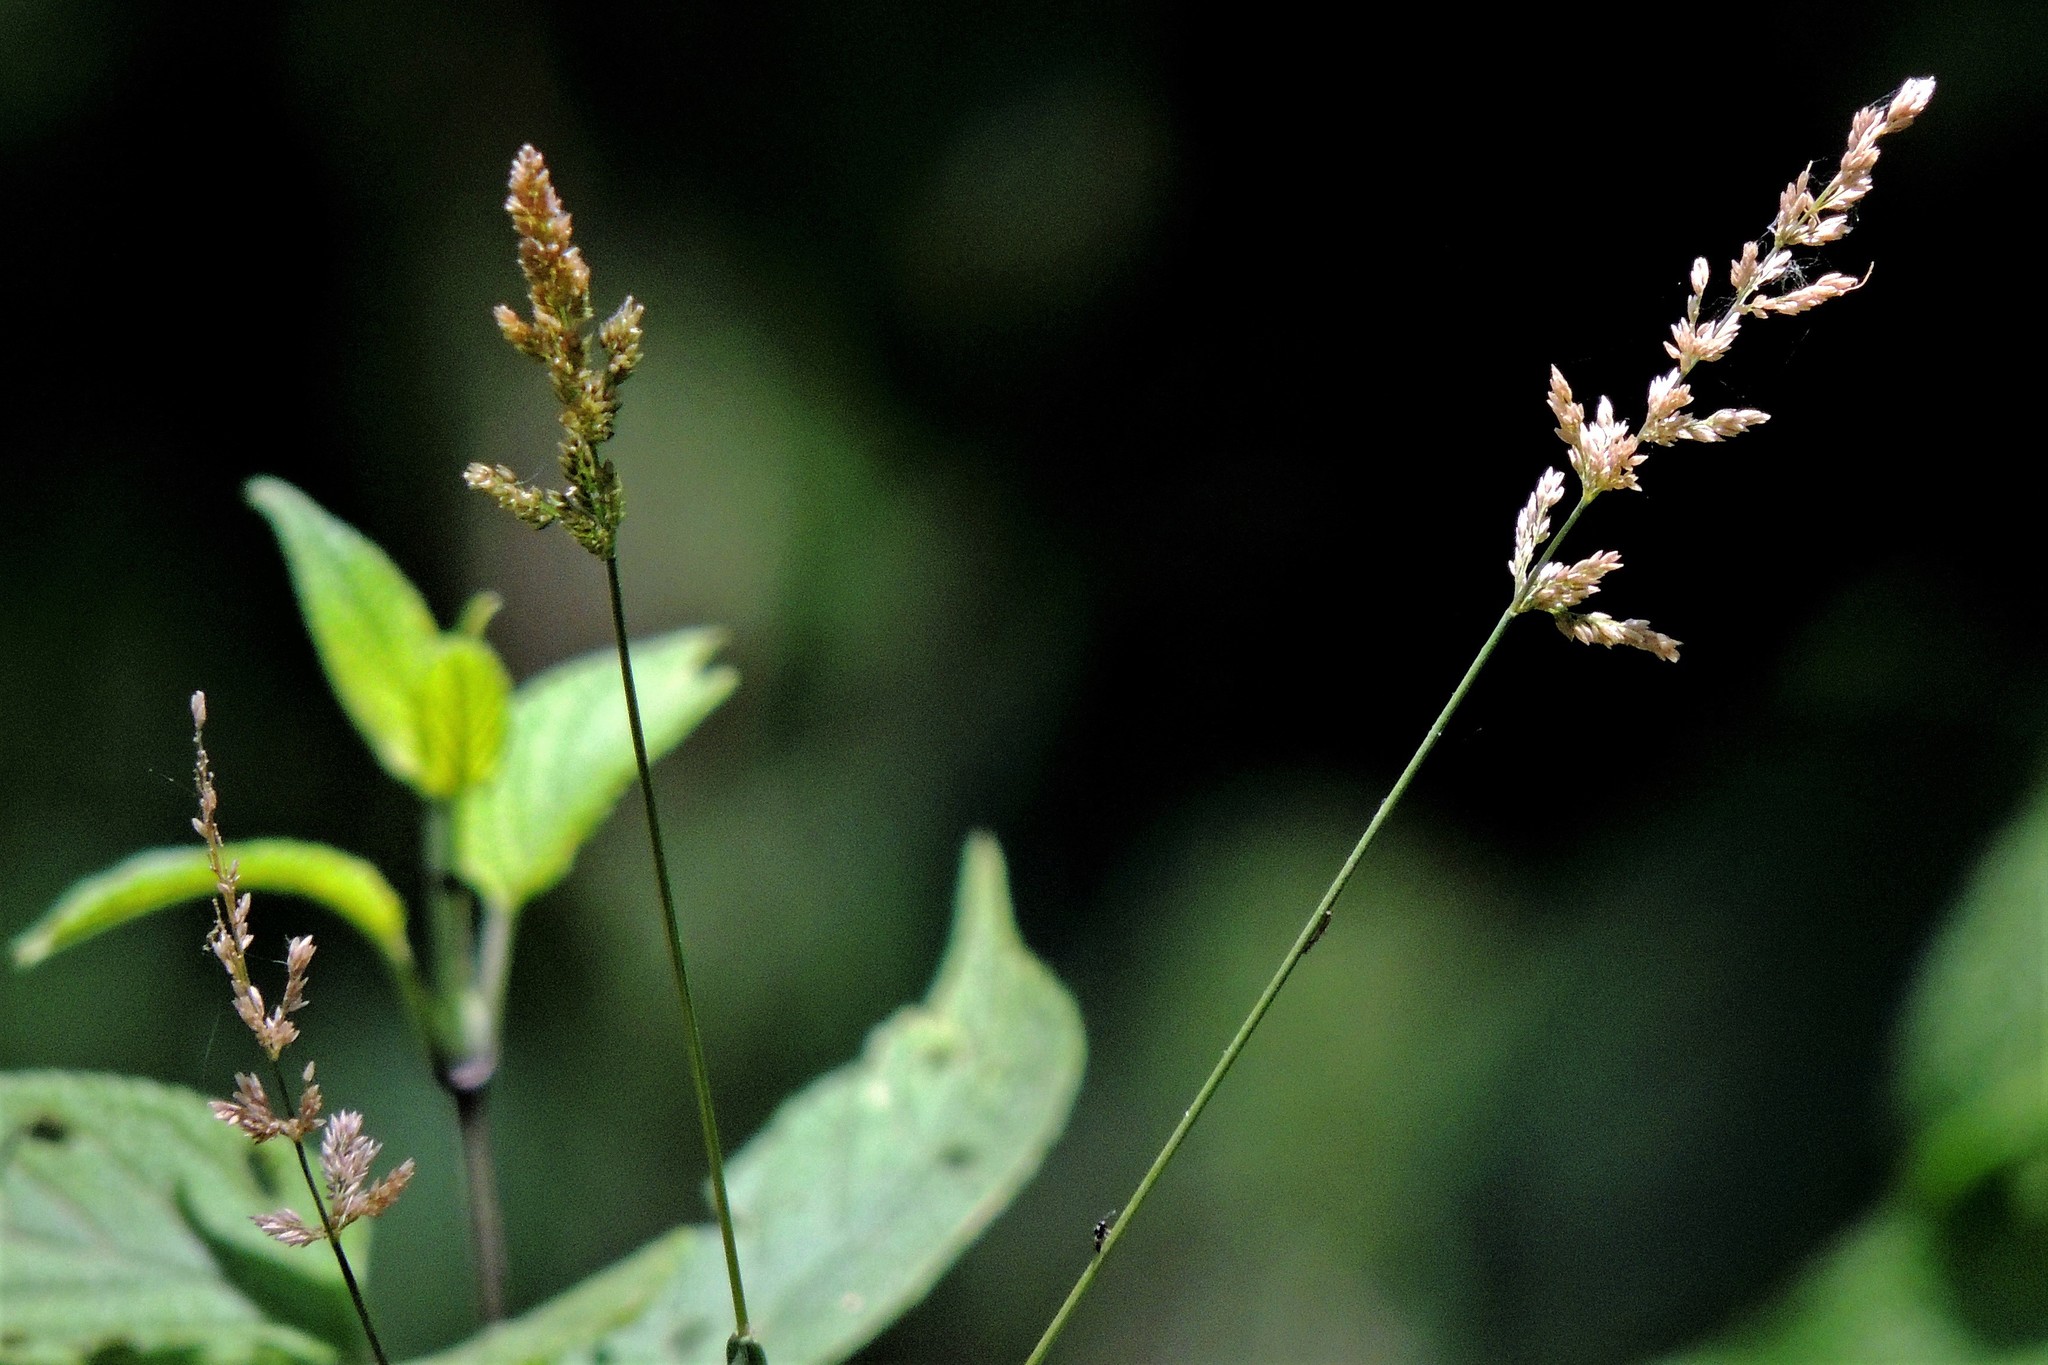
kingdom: Plantae
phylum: Tracheophyta
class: Liliopsida
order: Poales
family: Poaceae
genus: Polypogon
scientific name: Polypogon viridis
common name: Water bent
